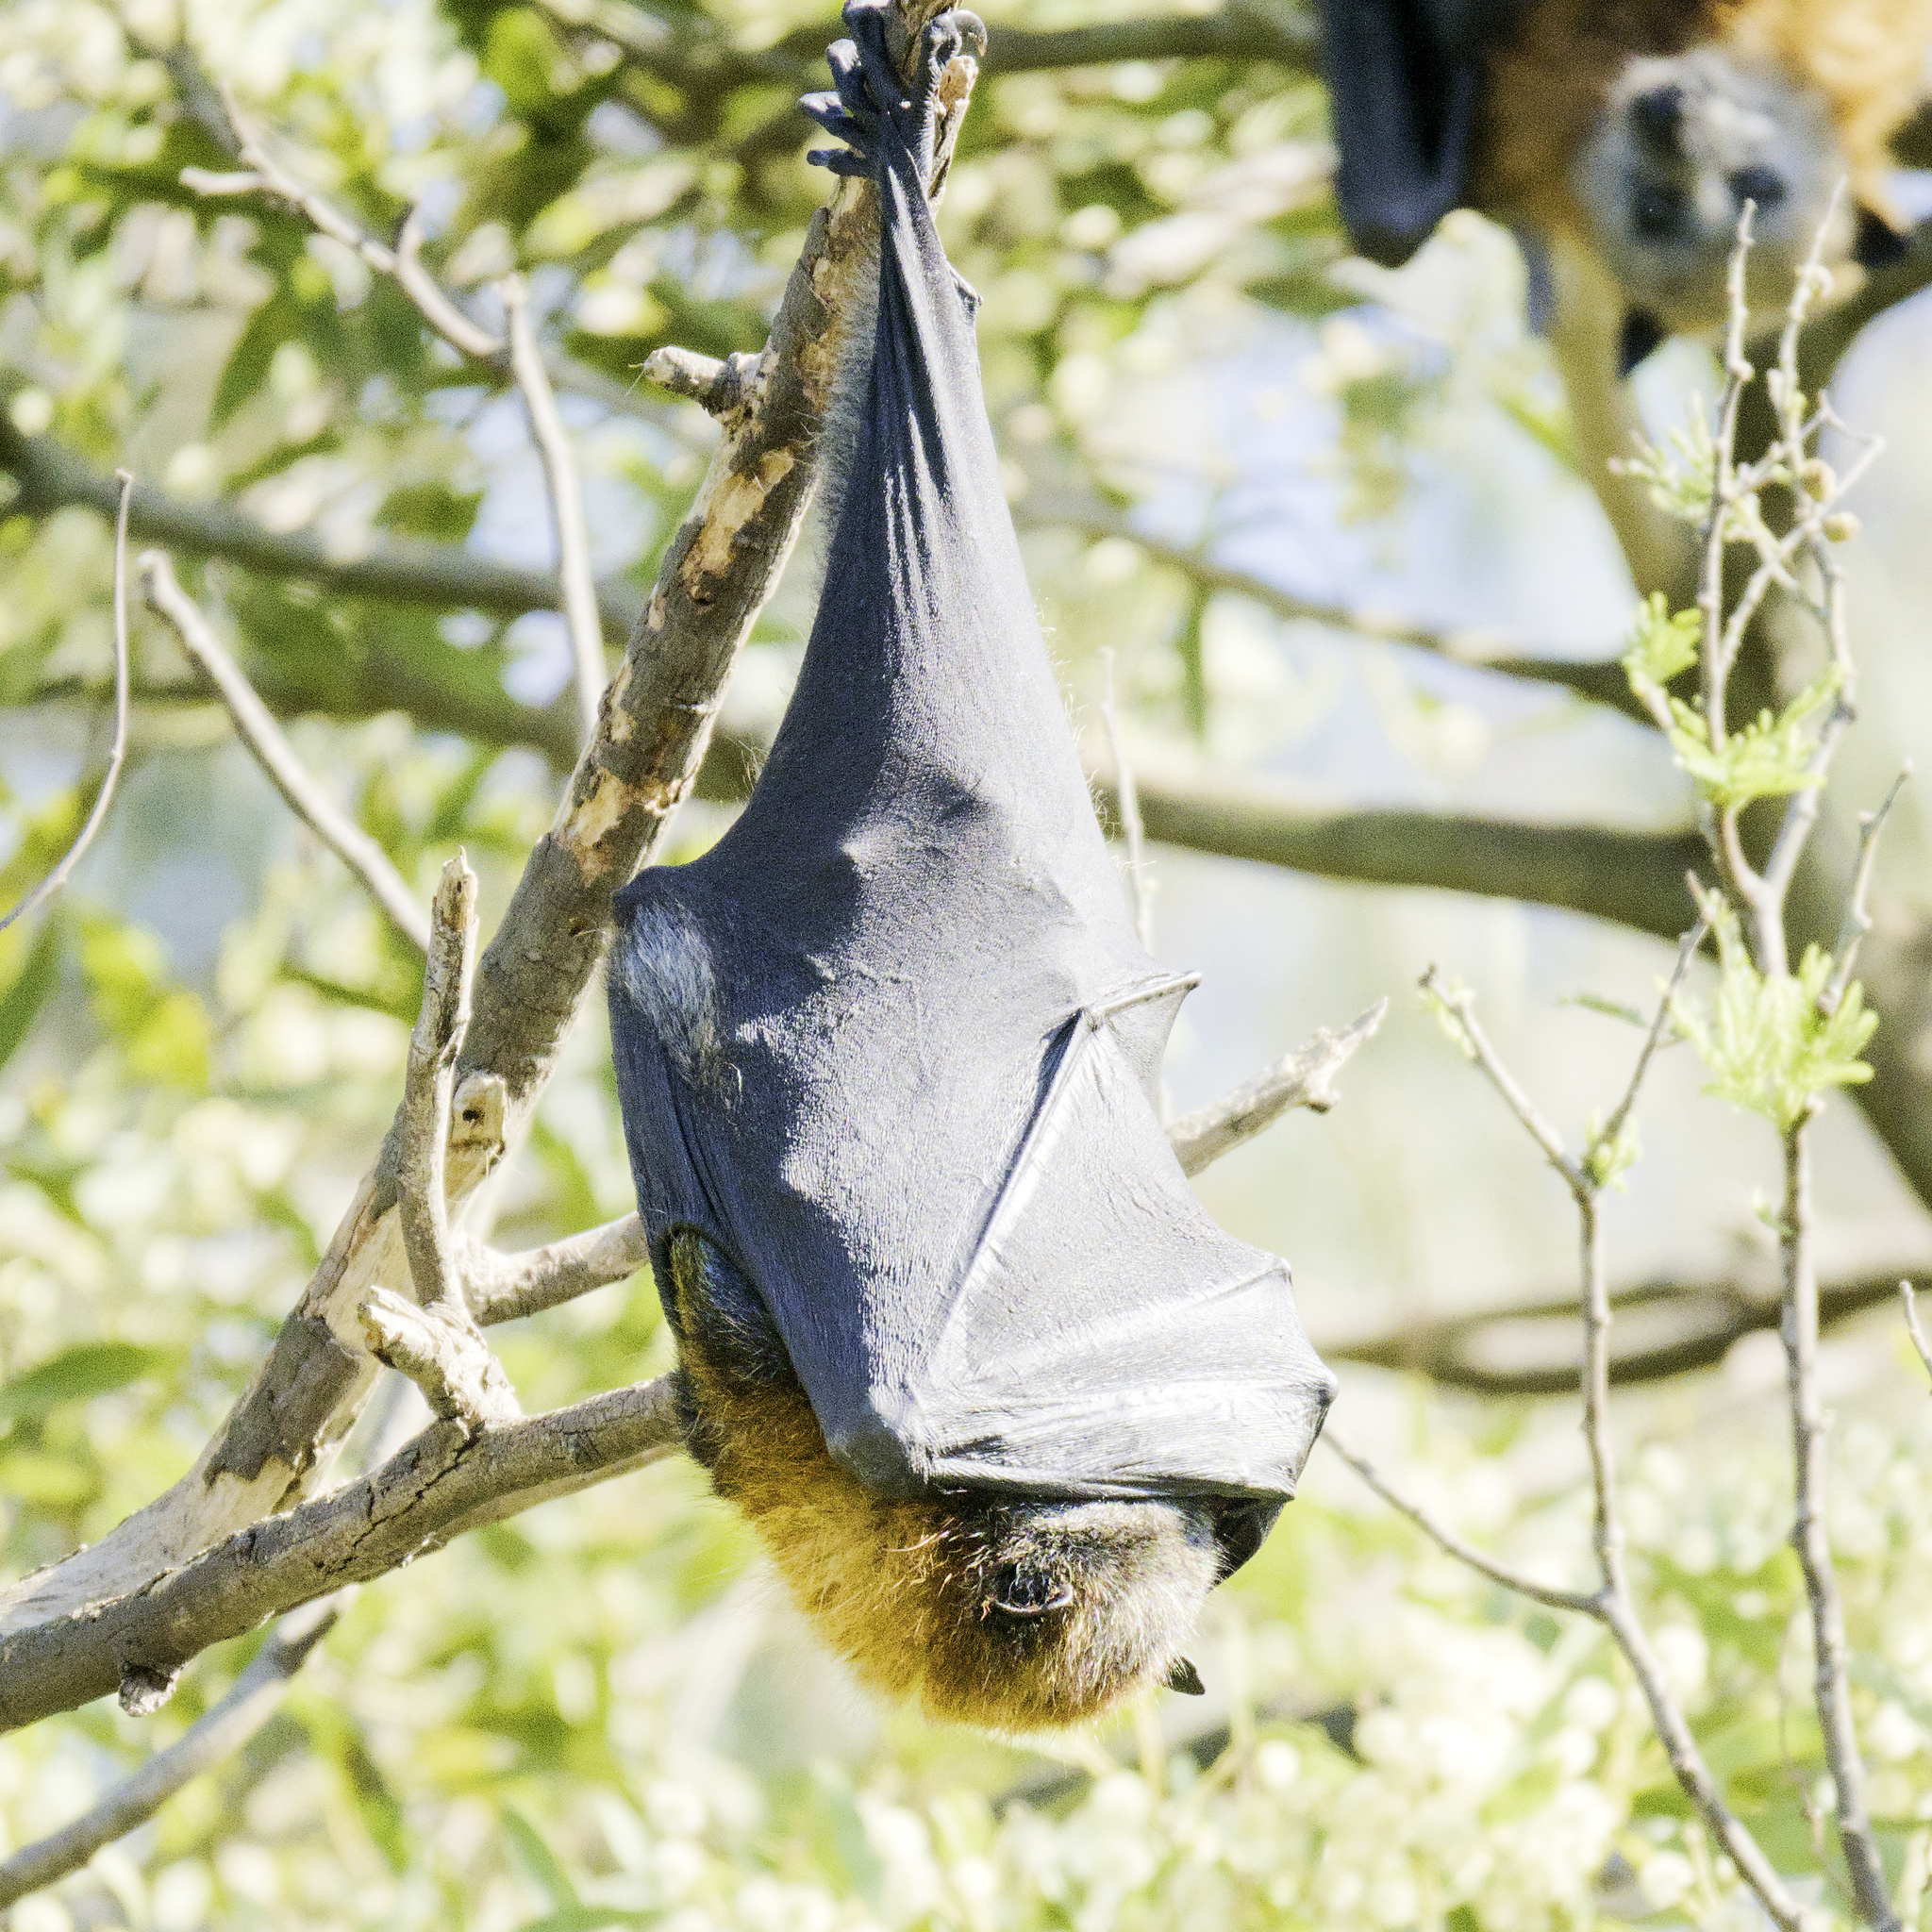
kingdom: Animalia
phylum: Chordata
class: Mammalia
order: Chiroptera
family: Pteropodidae
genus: Pteropus
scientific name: Pteropus poliocephalus
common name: Gray-headed flying fox
